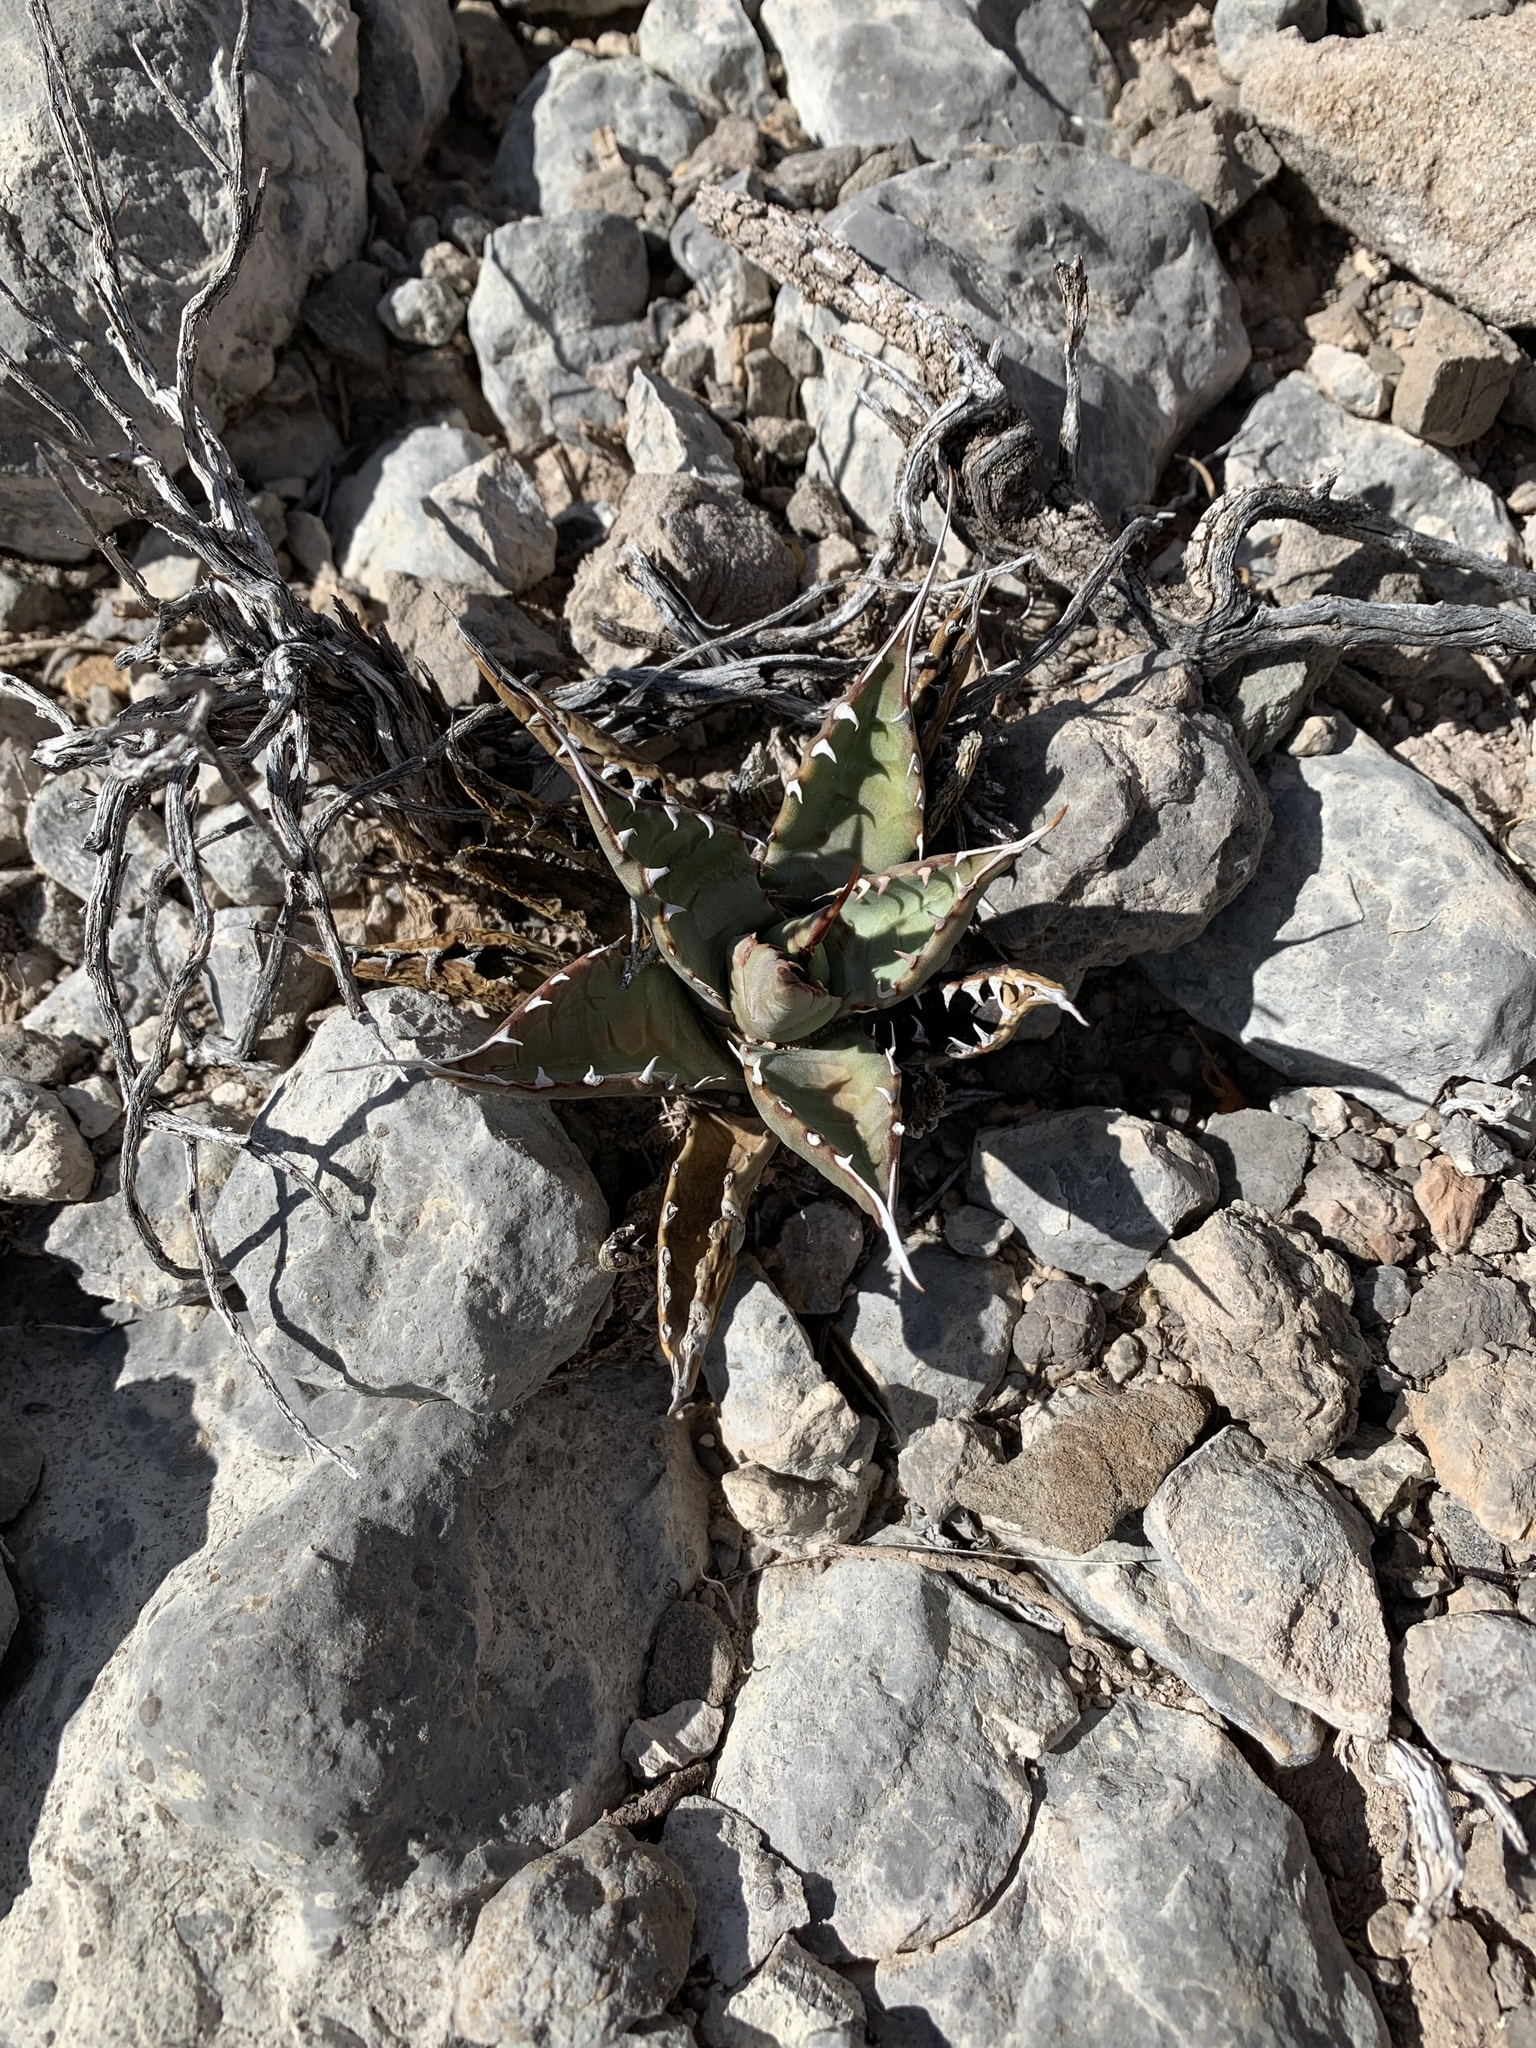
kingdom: Plantae
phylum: Tracheophyta
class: Liliopsida
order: Asparagales
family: Asparagaceae
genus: Agave
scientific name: Agave parryi
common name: Parry's agave
